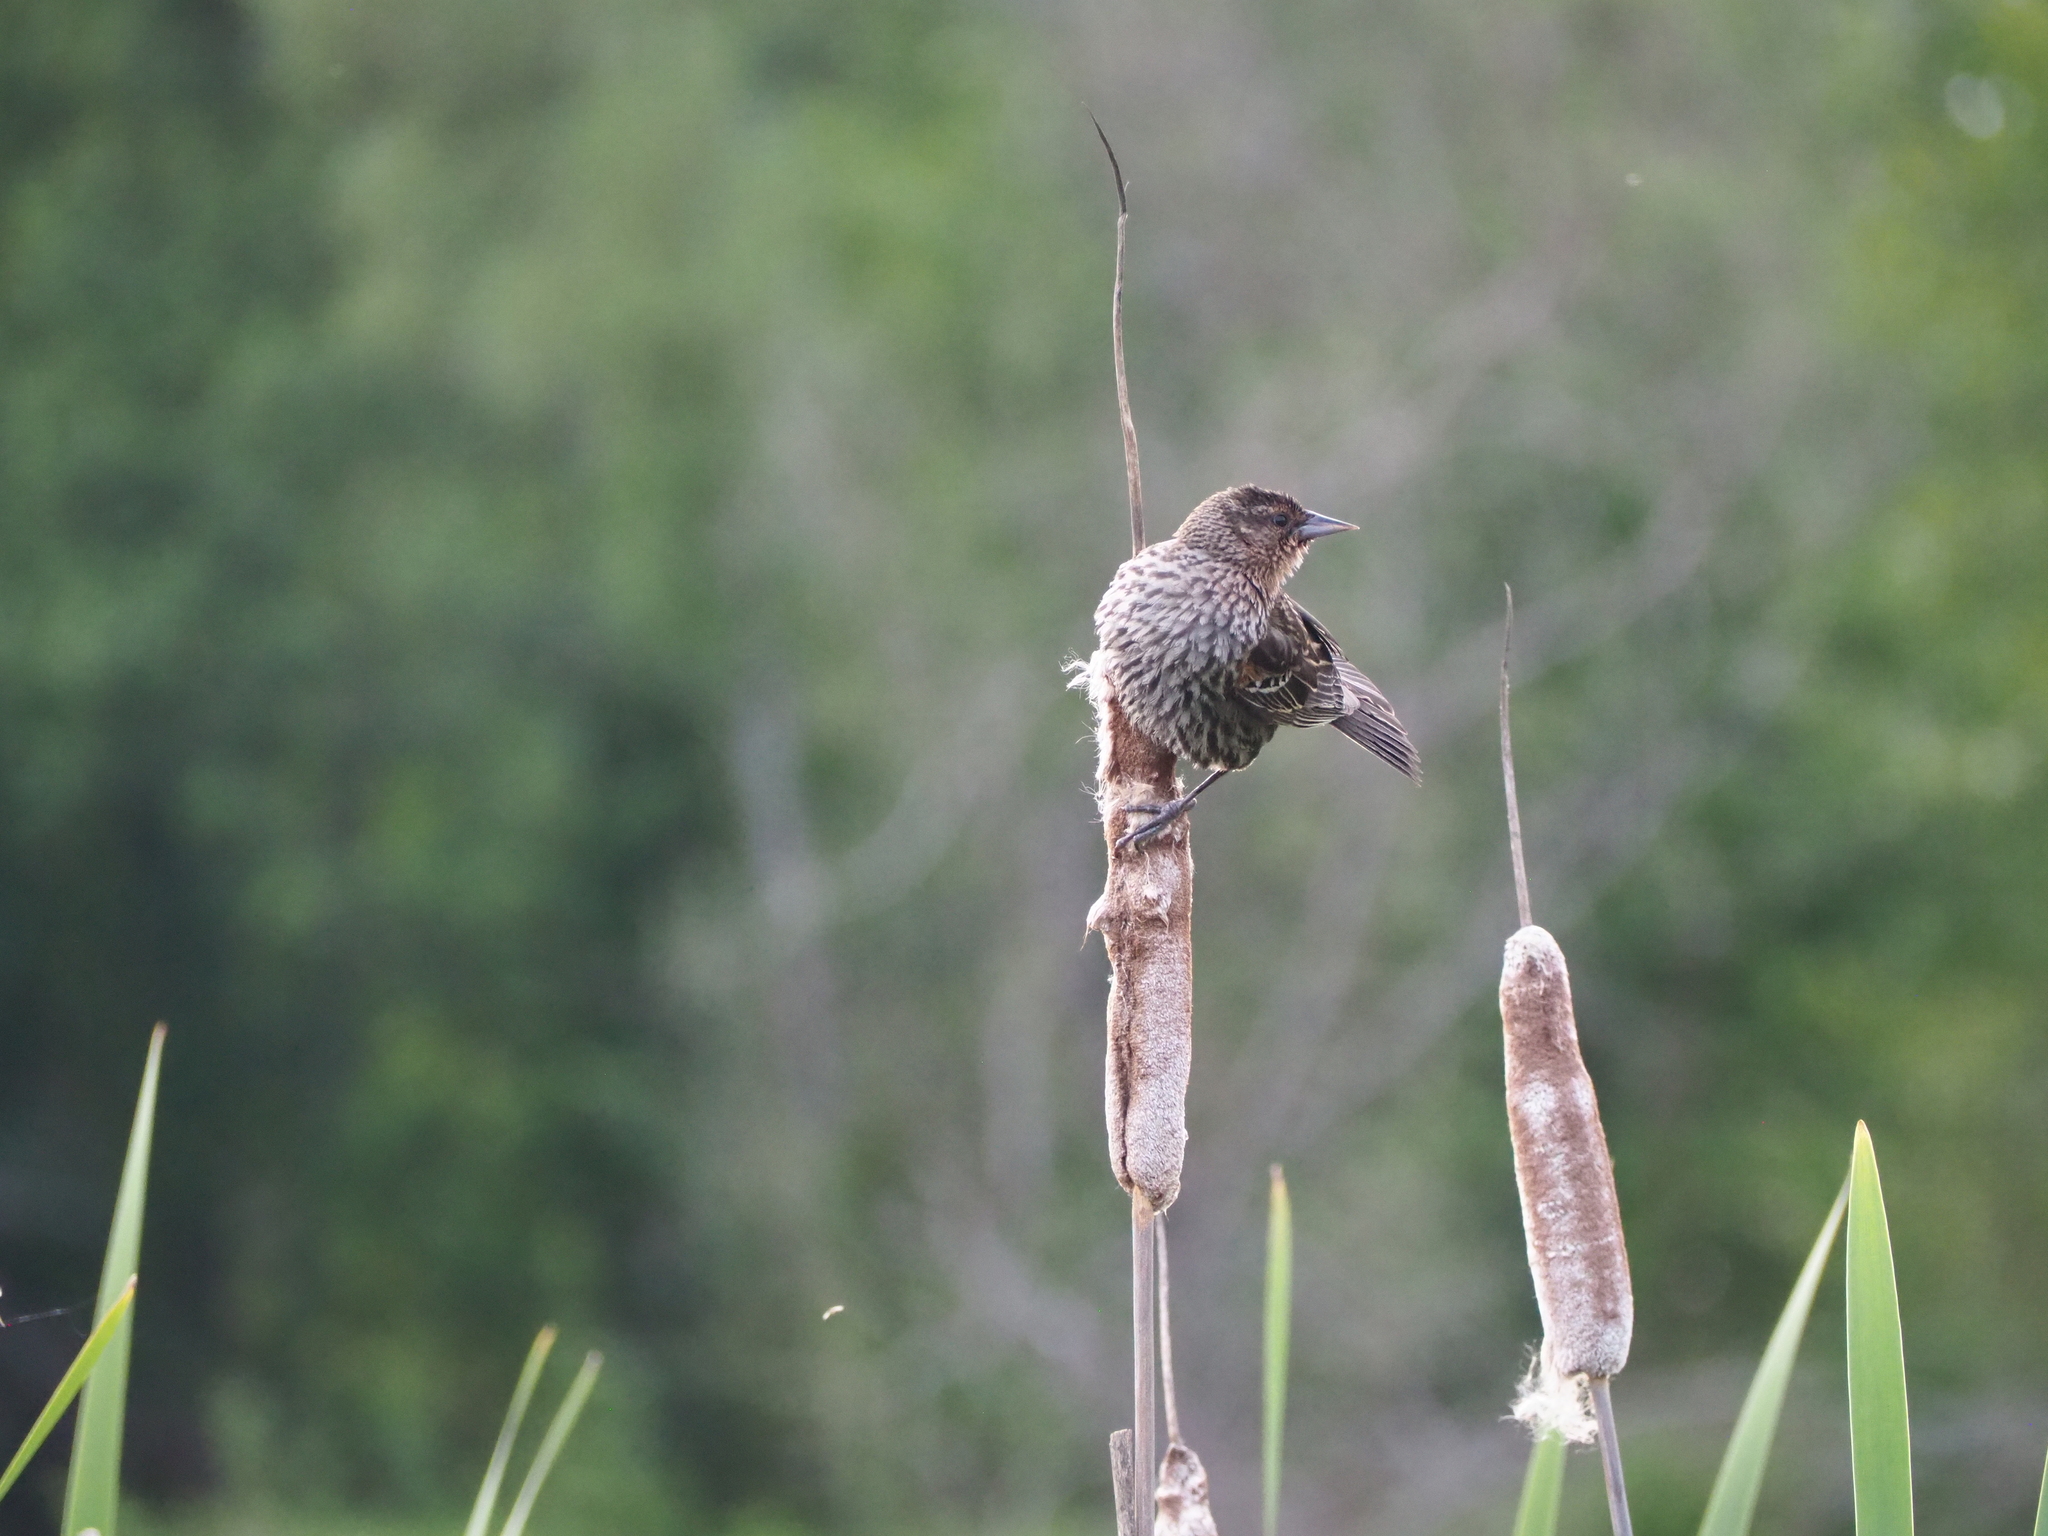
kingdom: Animalia
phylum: Chordata
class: Aves
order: Passeriformes
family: Icteridae
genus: Agelaius
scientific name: Agelaius phoeniceus
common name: Red-winged blackbird
